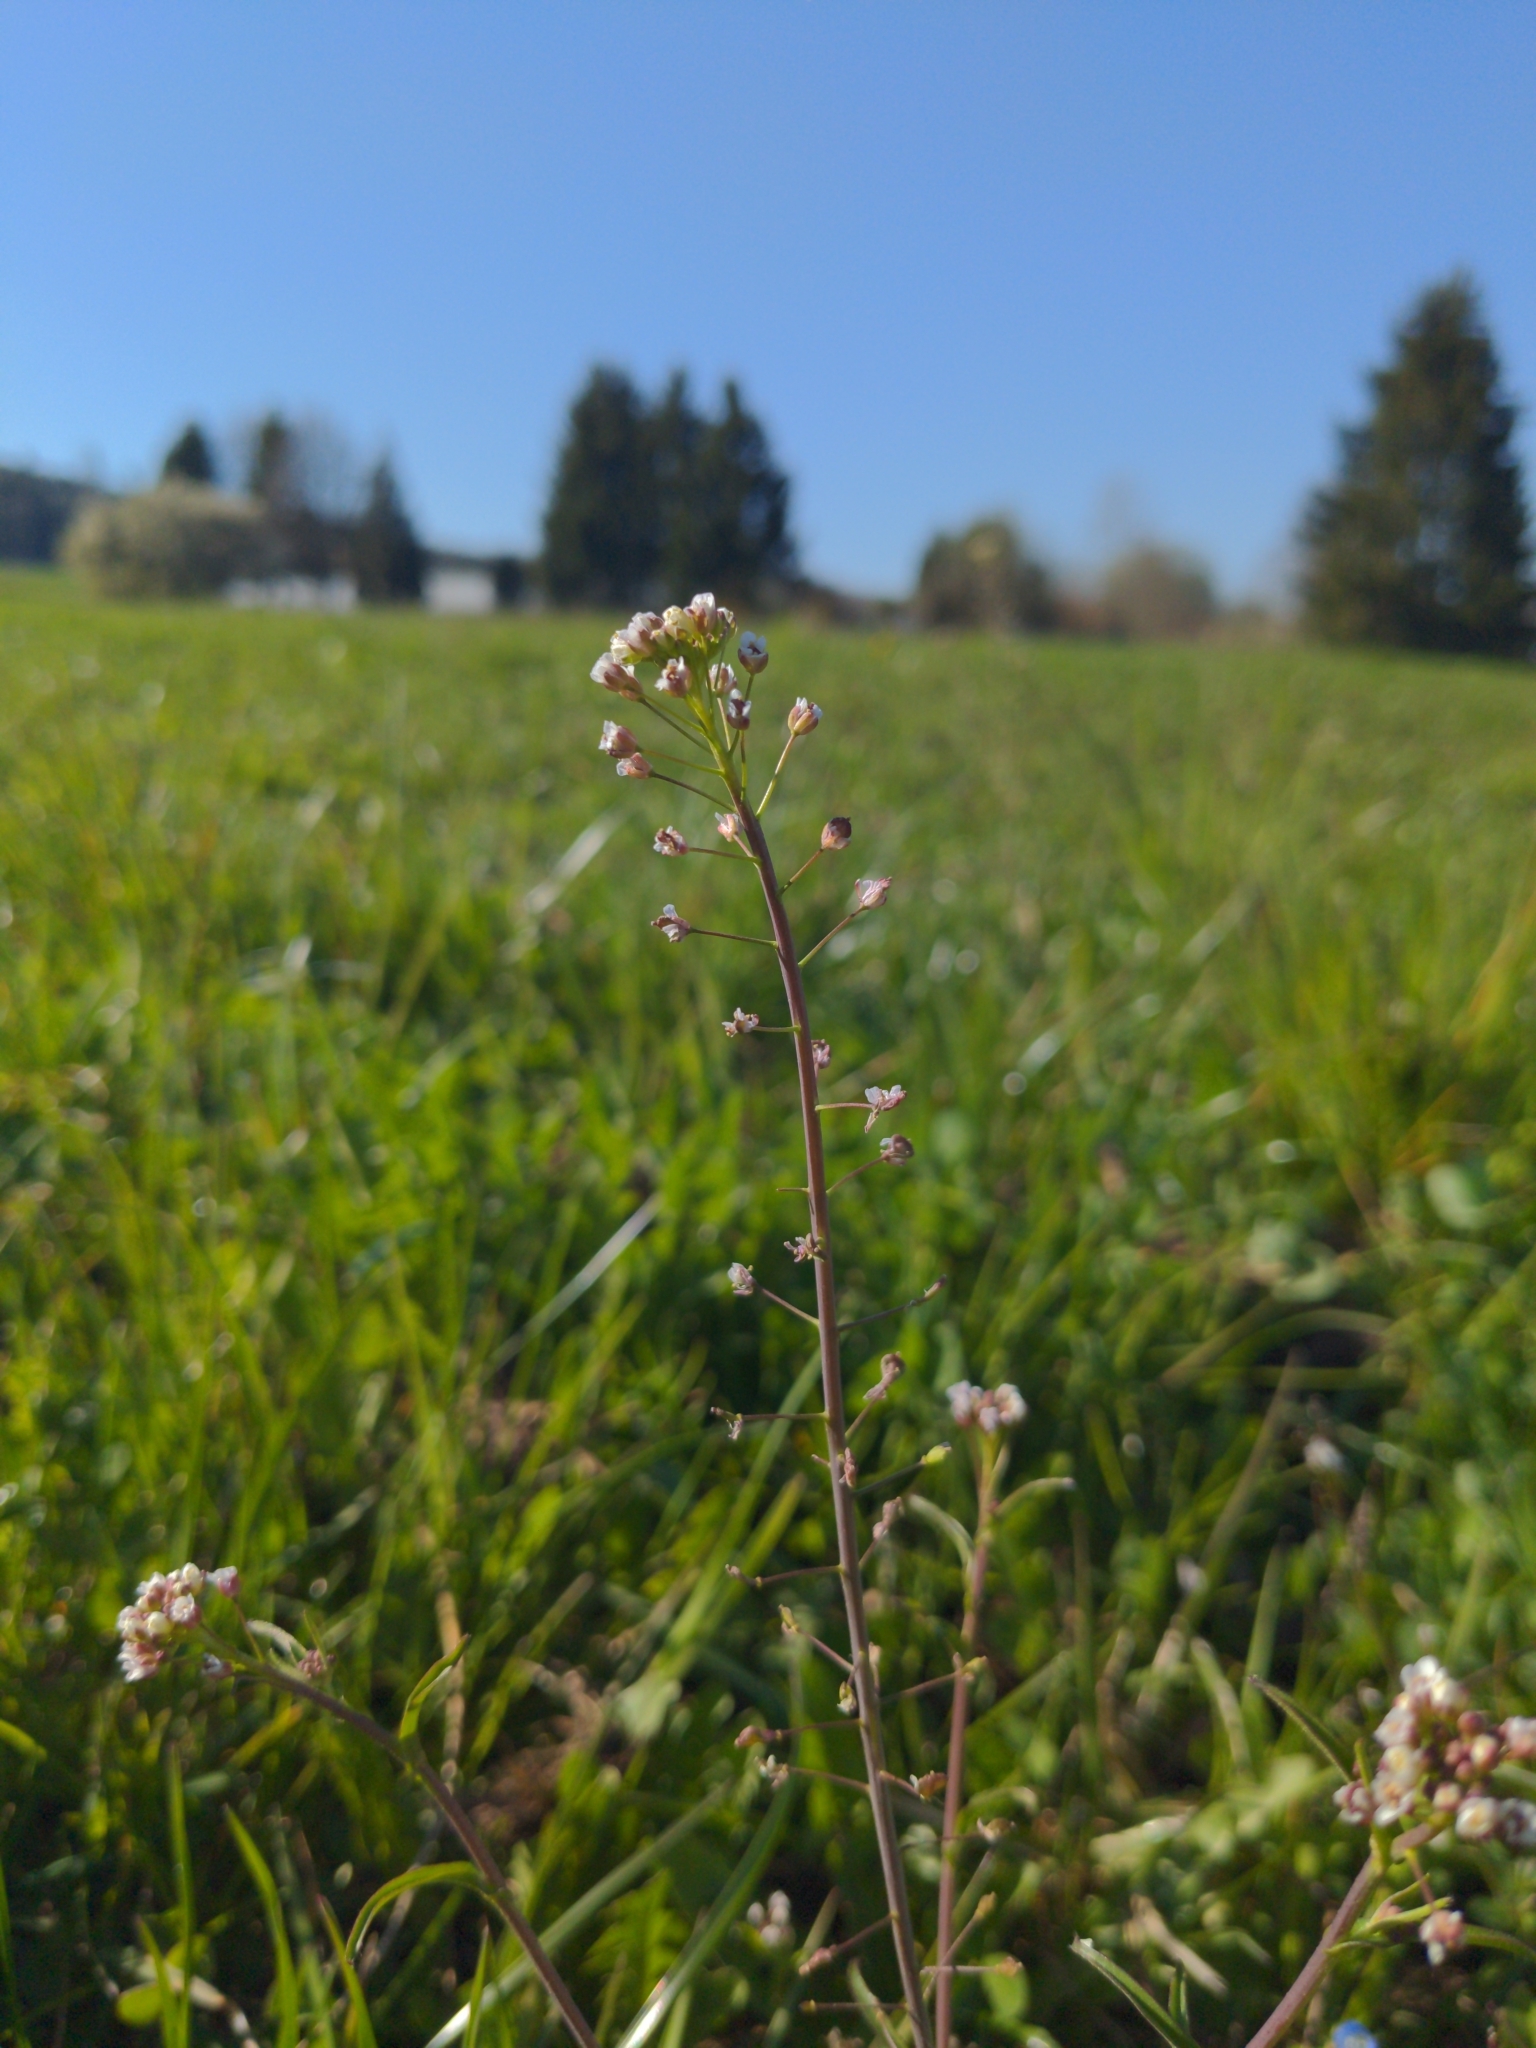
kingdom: Plantae
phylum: Tracheophyta
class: Magnoliopsida
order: Brassicales
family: Brassicaceae
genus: Capsella
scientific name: Capsella bursa-pastoris
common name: Shepherd's purse
